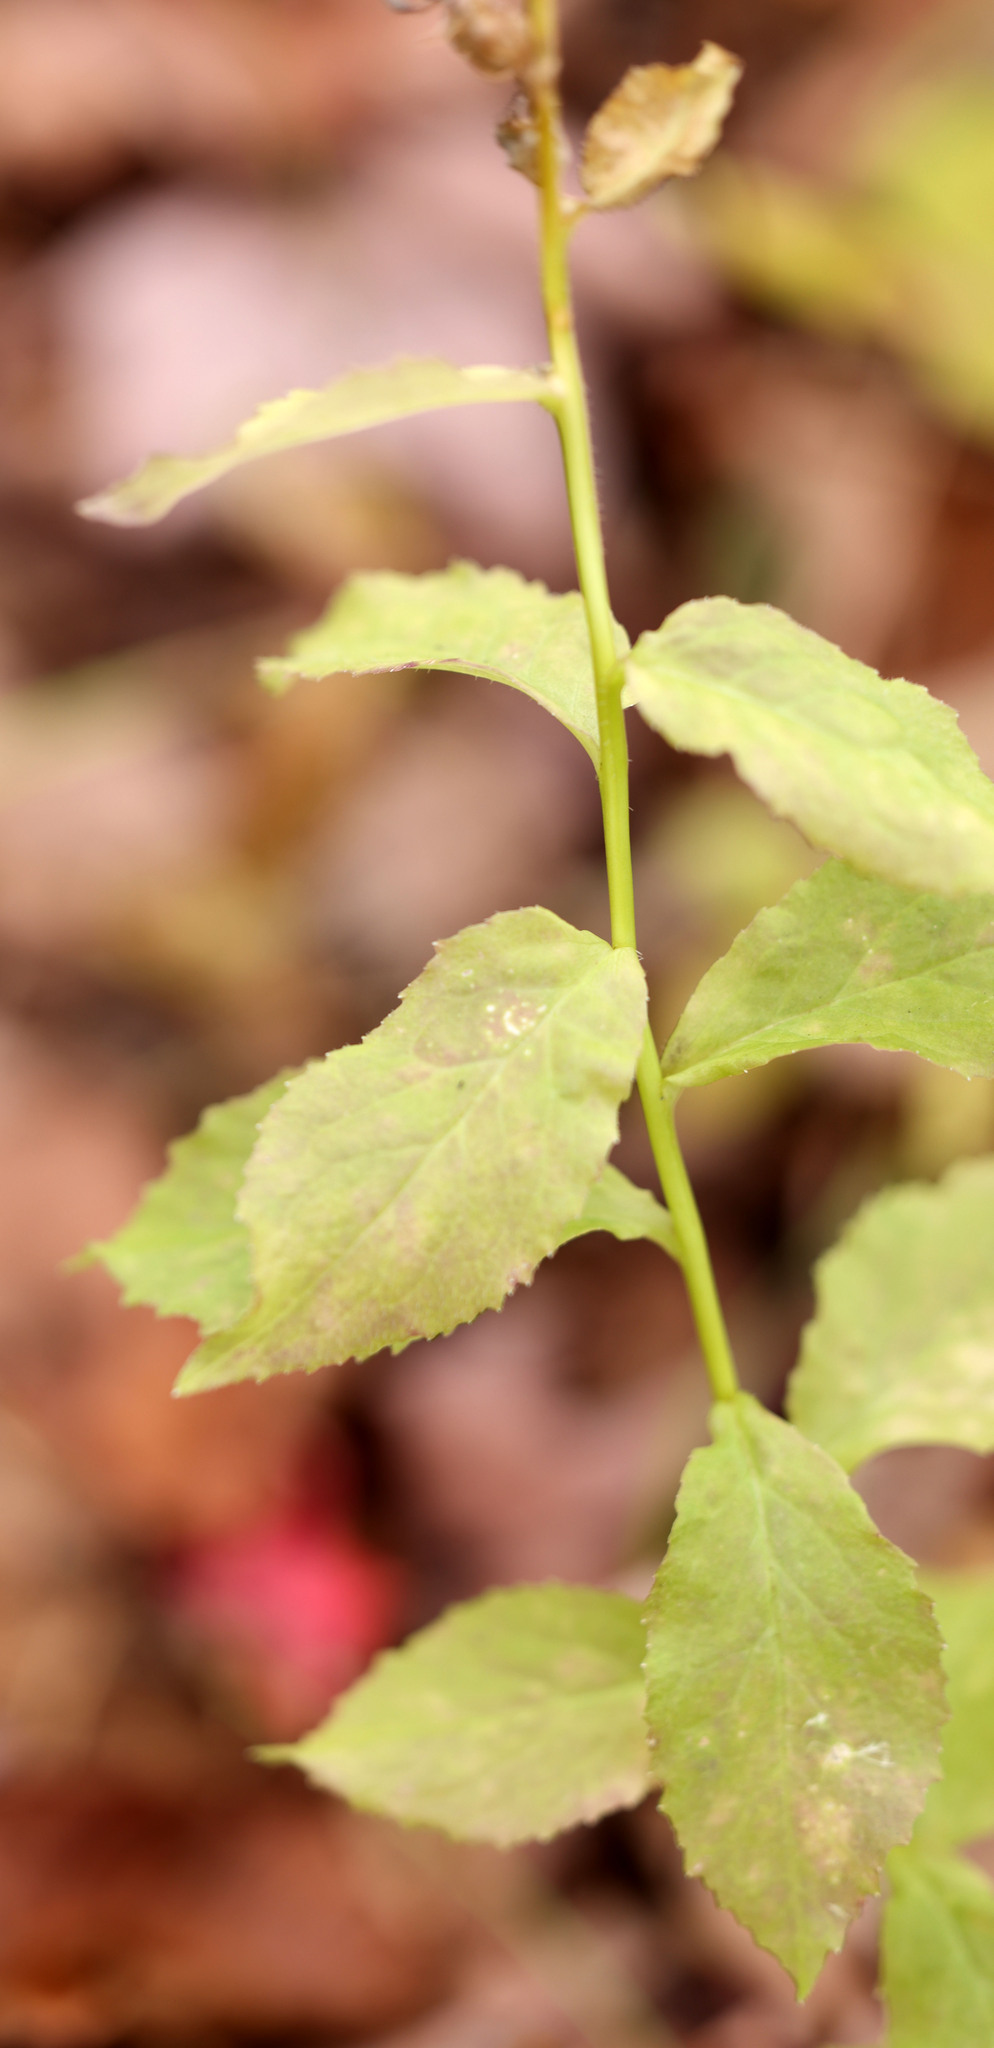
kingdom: Plantae
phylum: Tracheophyta
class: Magnoliopsida
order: Asterales
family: Campanulaceae
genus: Lobelia
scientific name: Lobelia siphilitica
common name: Great lobelia
